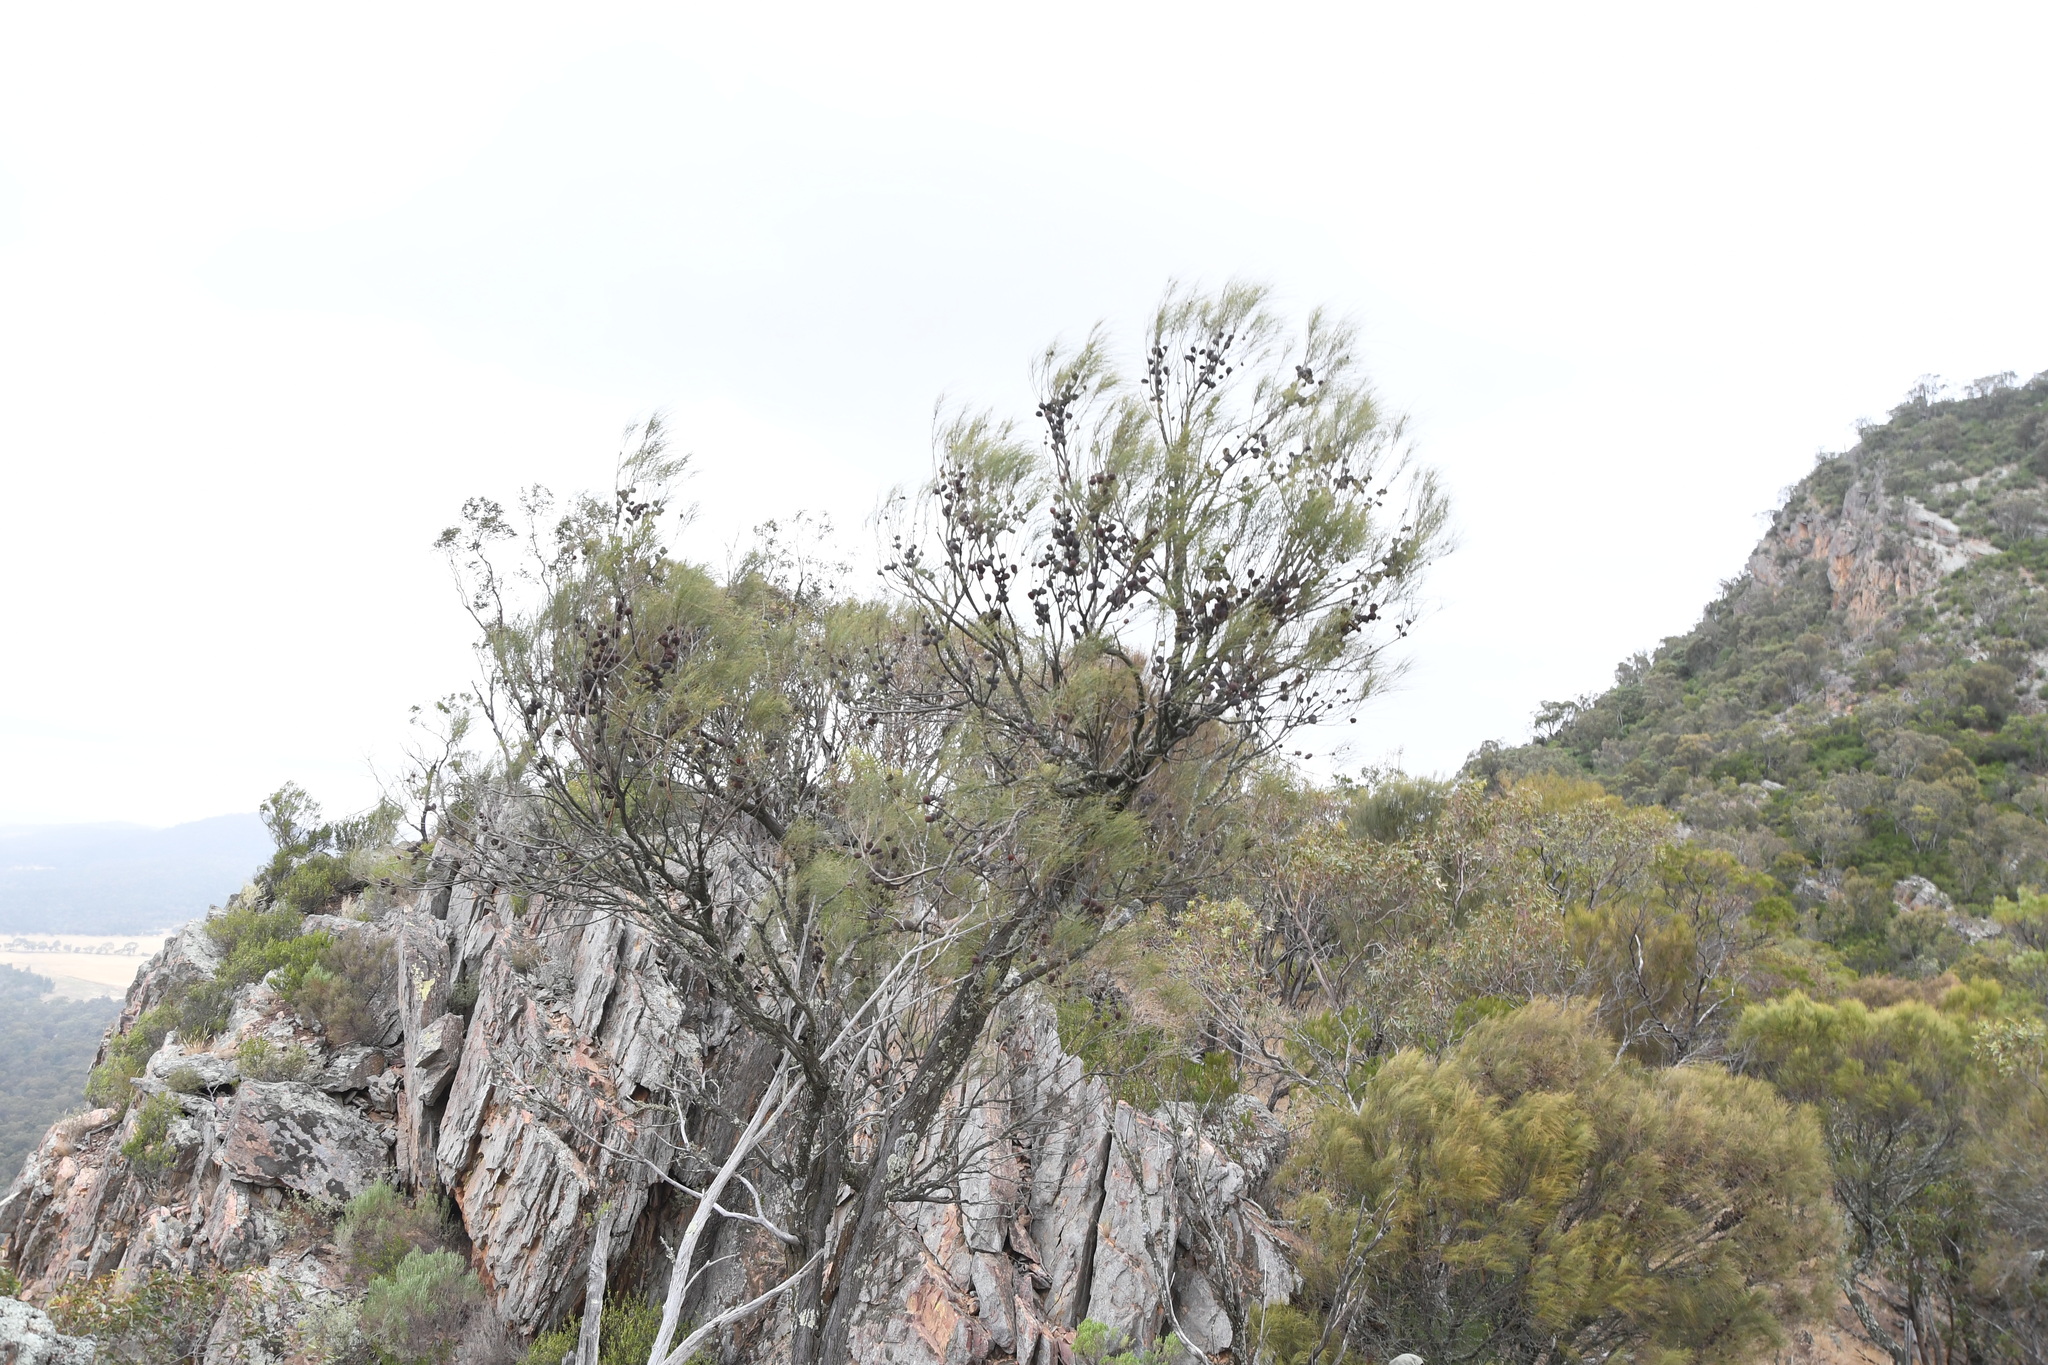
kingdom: Plantae
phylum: Tracheophyta
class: Magnoliopsida
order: Fagales
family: Casuarinaceae
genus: Allocasuarina
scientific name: Allocasuarina verticillata
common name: Drooping she-oak
